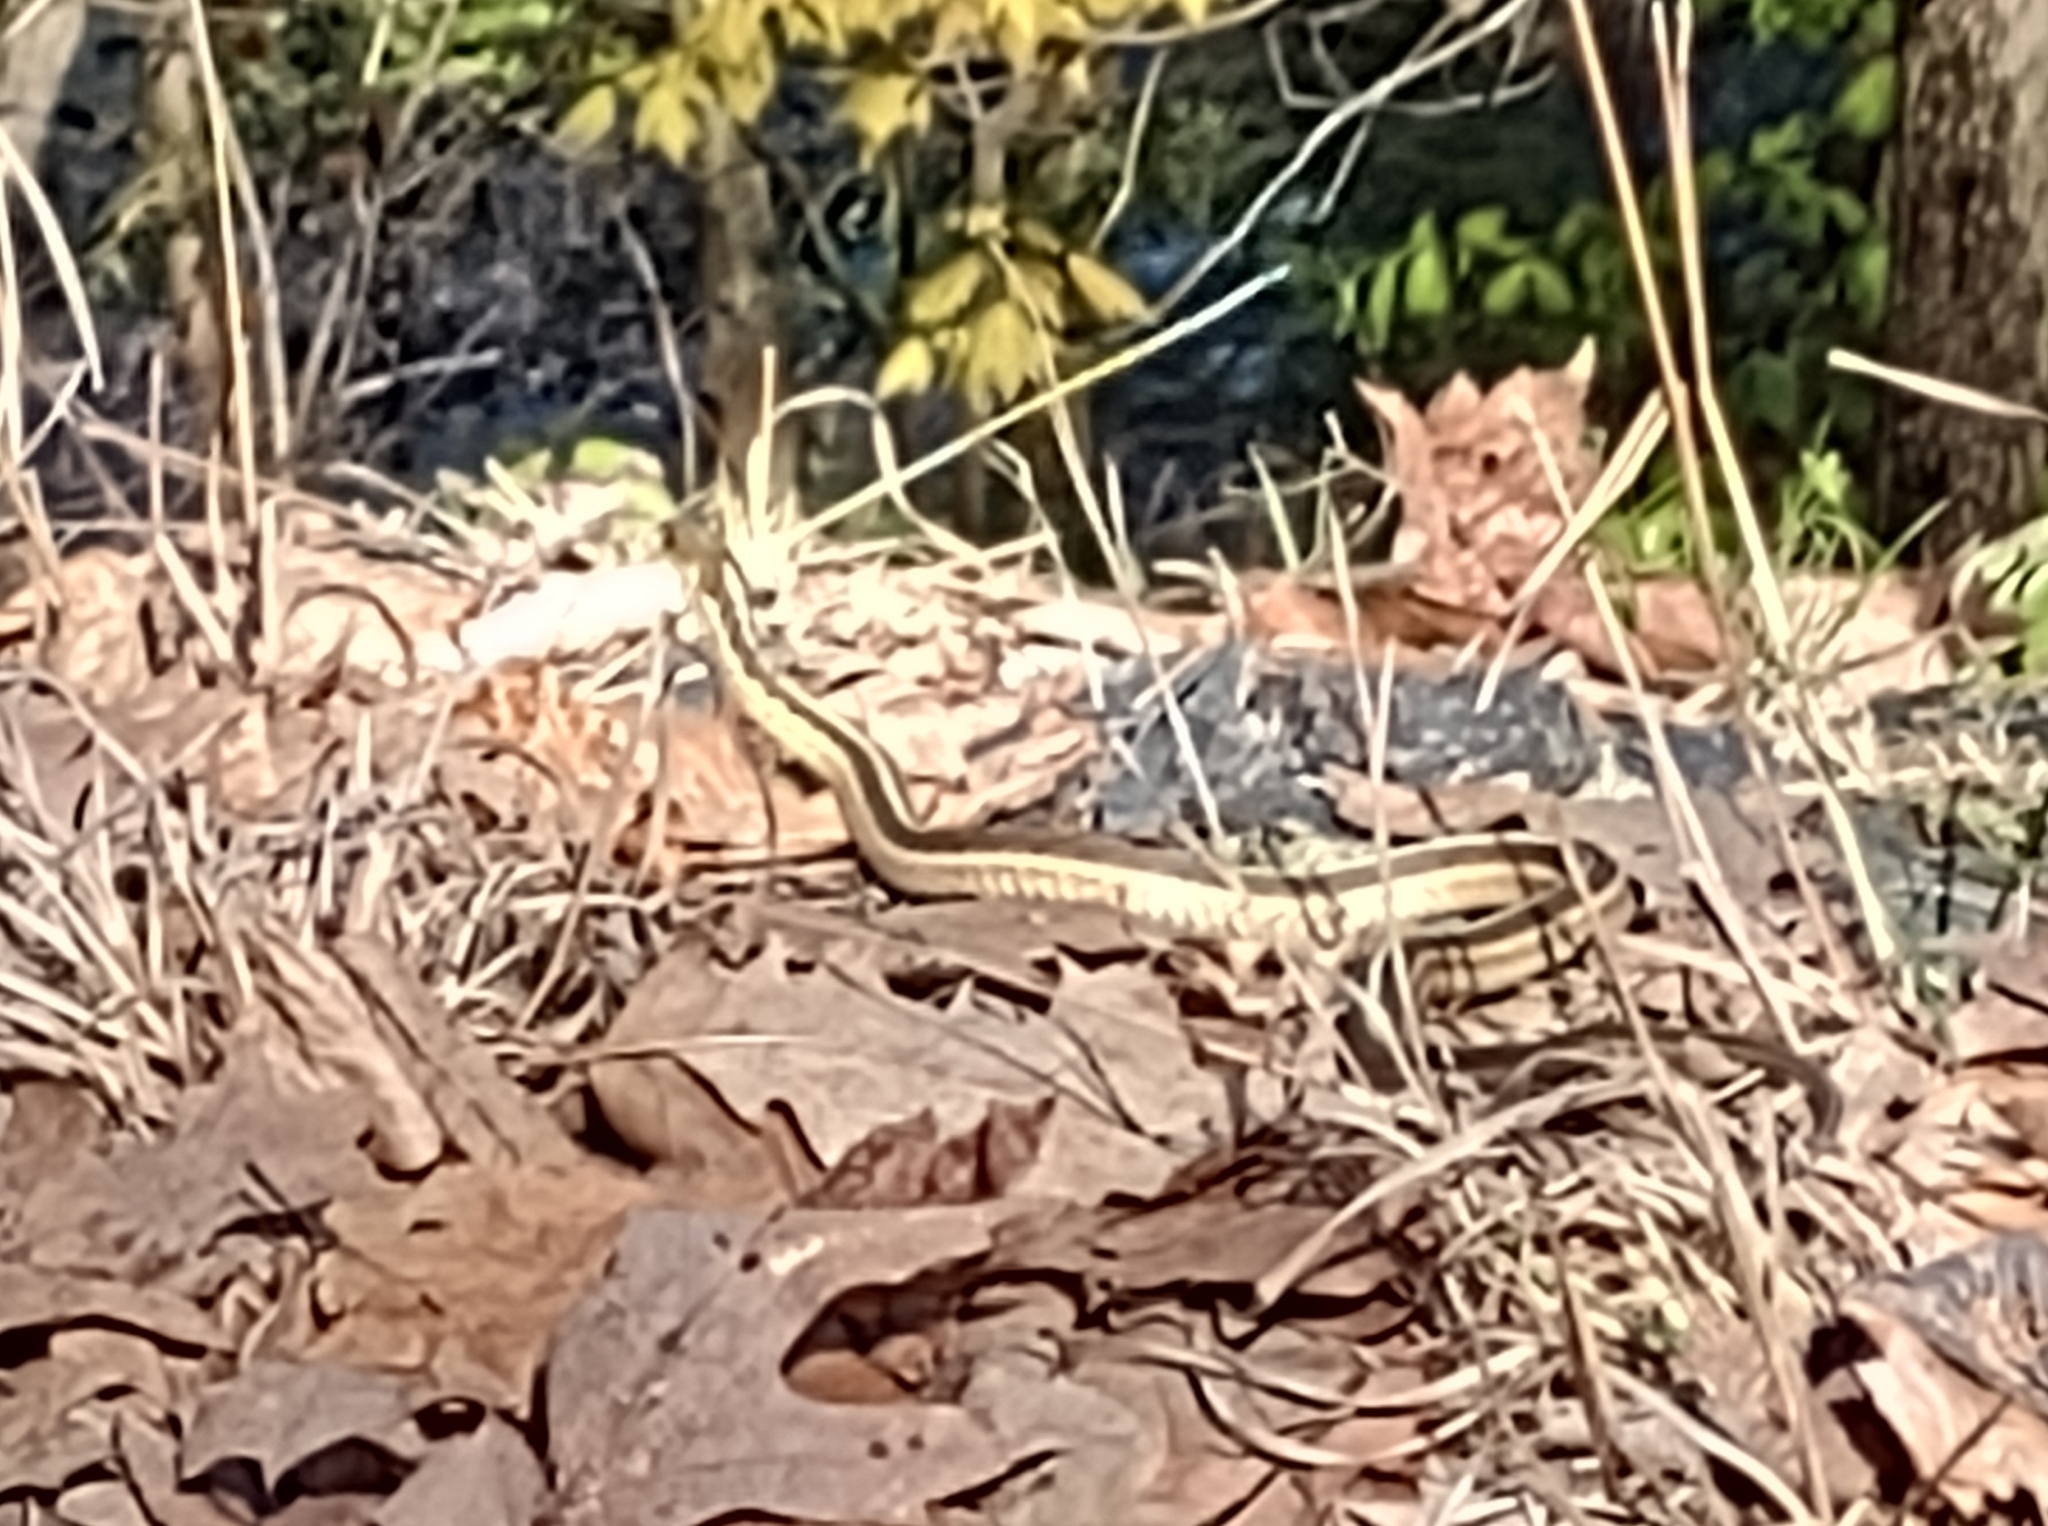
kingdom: Animalia
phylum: Chordata
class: Squamata
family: Colubridae
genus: Thamnophis
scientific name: Thamnophis sirtalis
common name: Common garter snake
